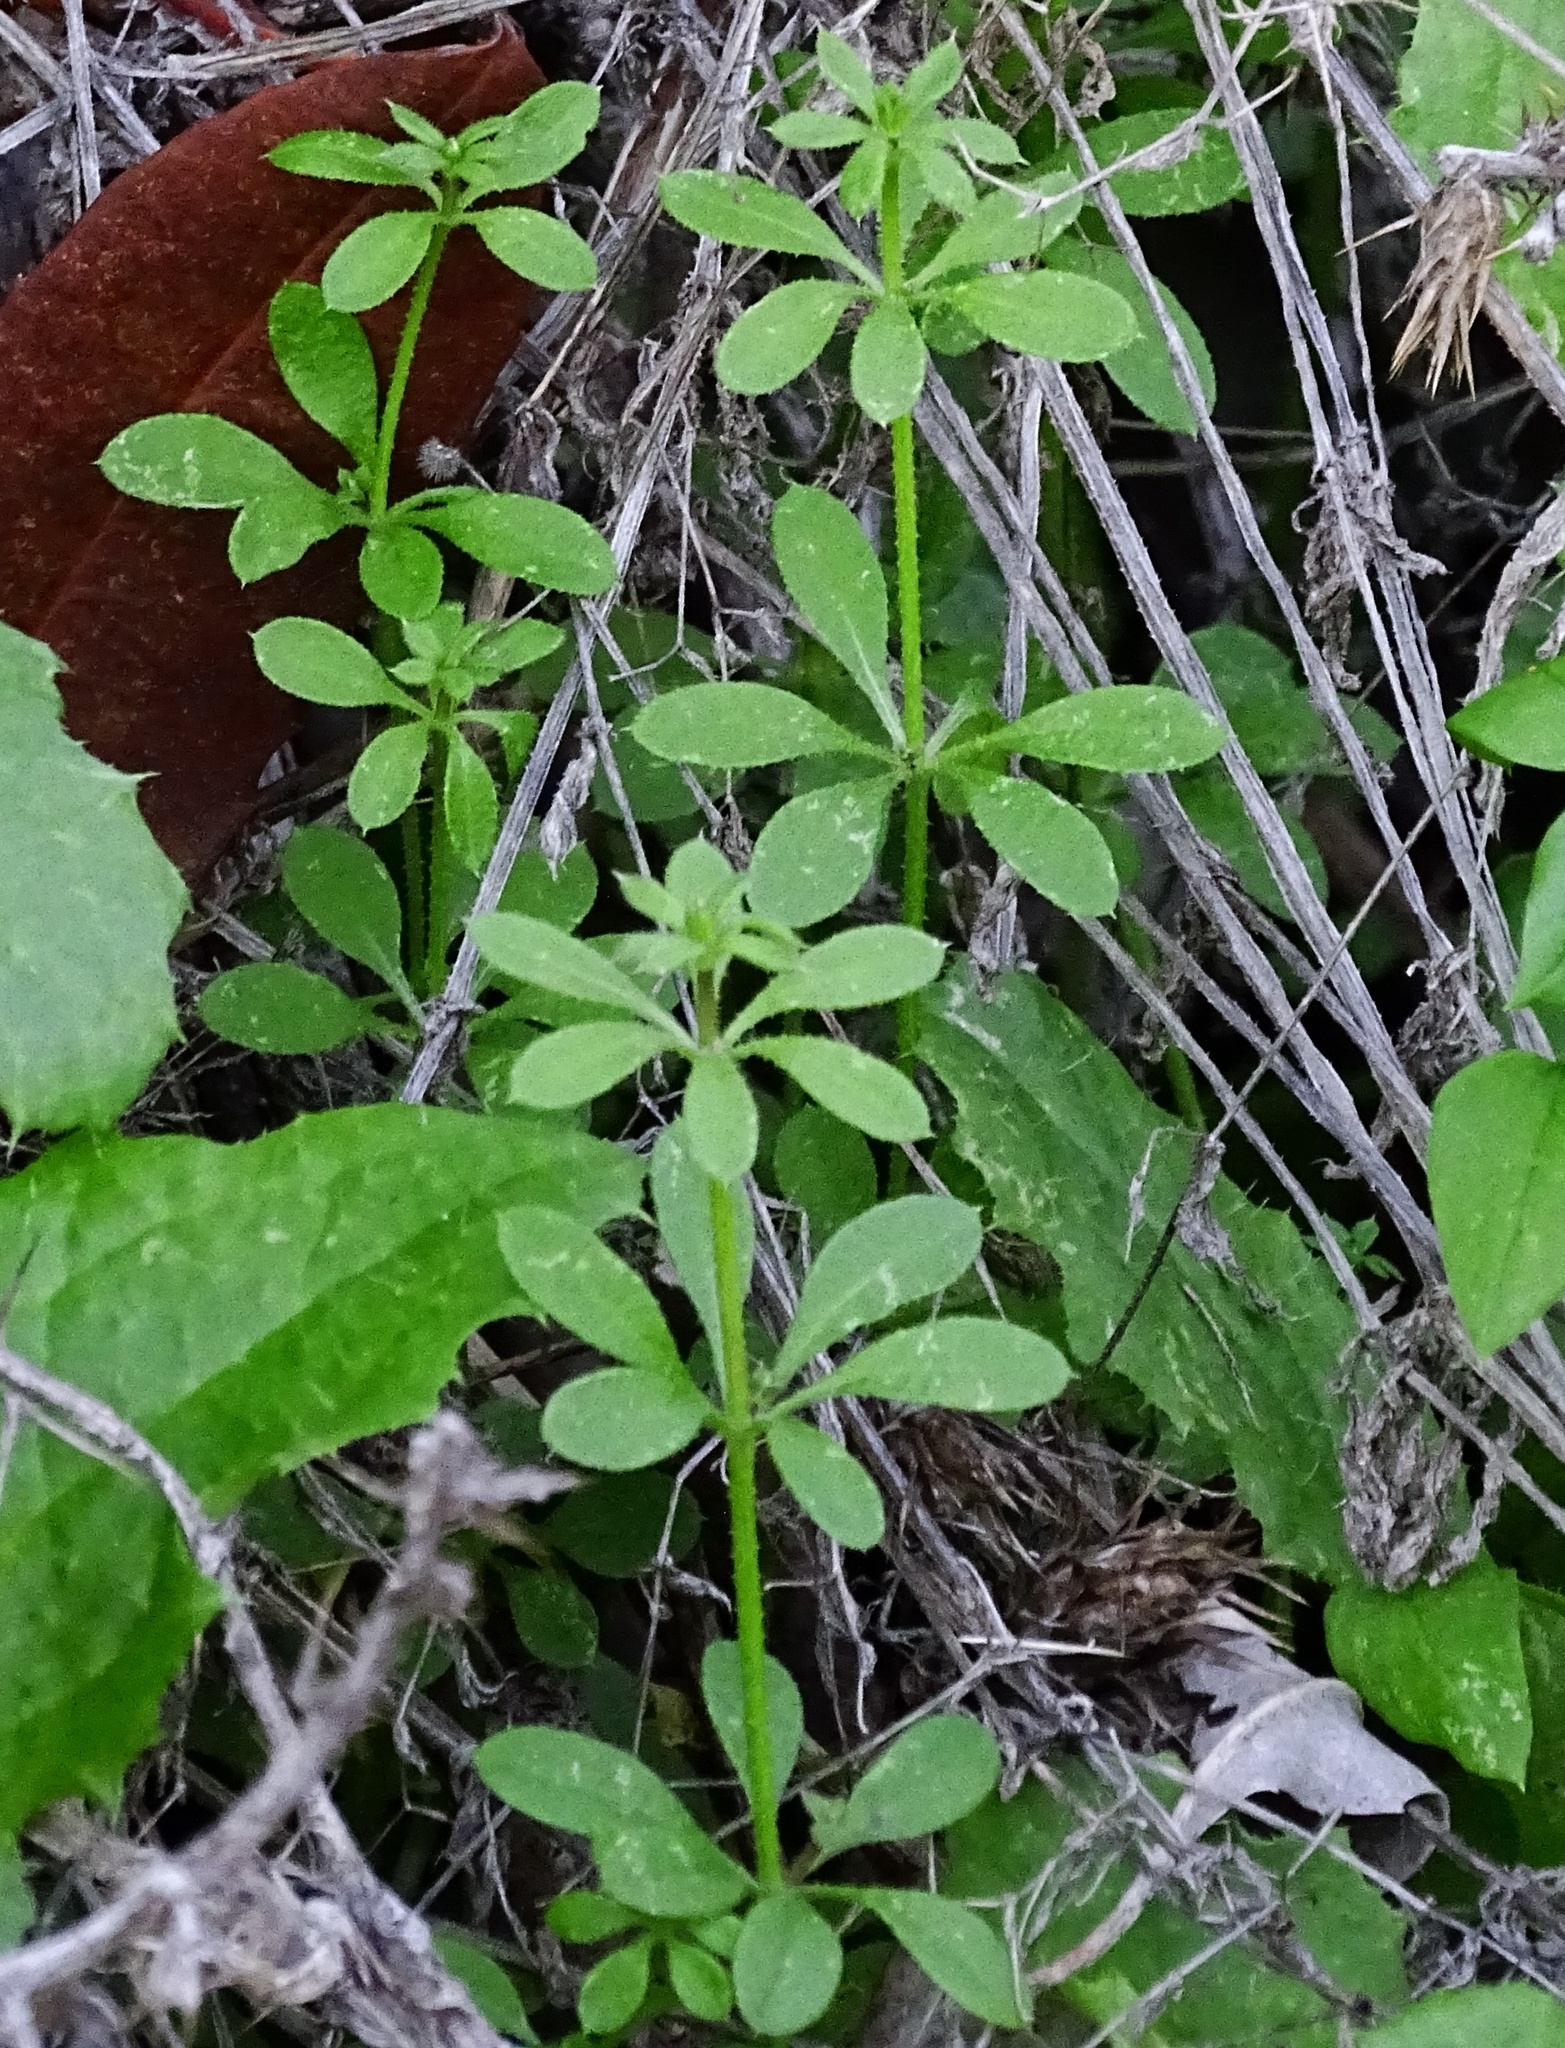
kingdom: Plantae
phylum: Tracheophyta
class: Magnoliopsida
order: Gentianales
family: Rubiaceae
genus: Galium
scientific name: Galium aparine
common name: Cleavers
